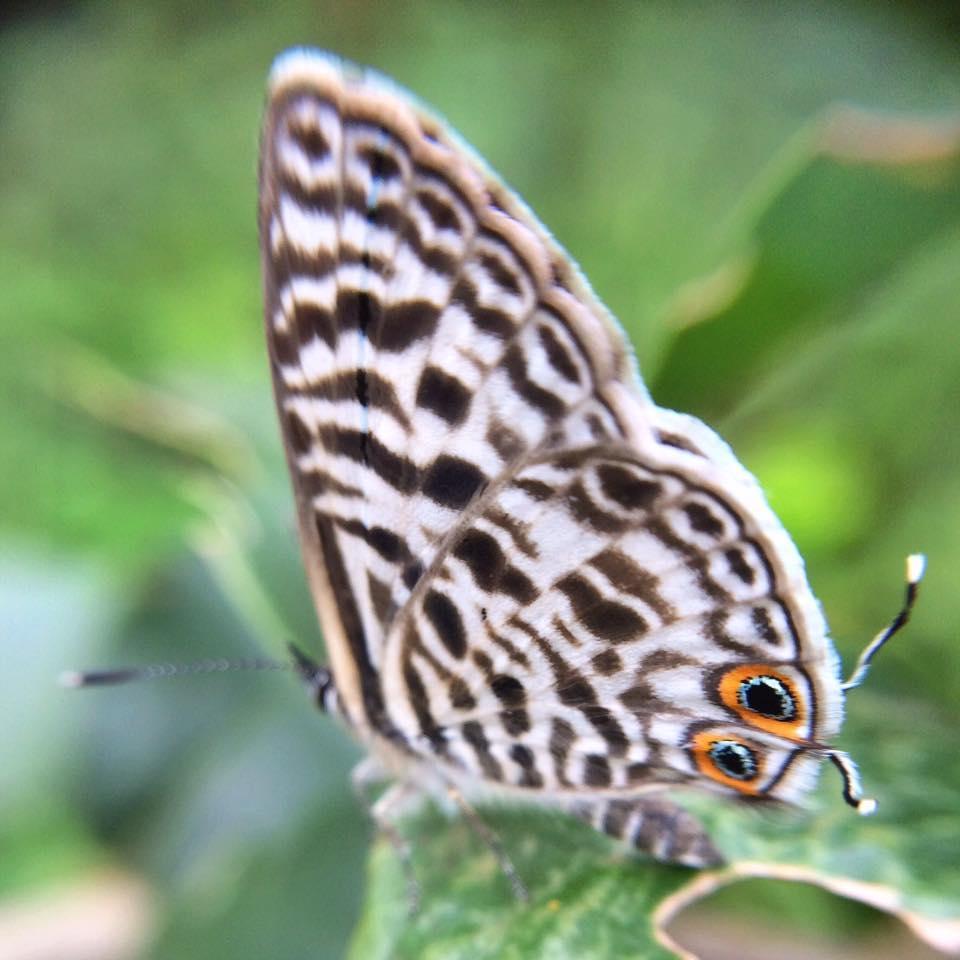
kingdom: Animalia
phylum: Arthropoda
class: Insecta
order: Lepidoptera
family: Lycaenidae
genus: Leptotes
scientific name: Leptotes
